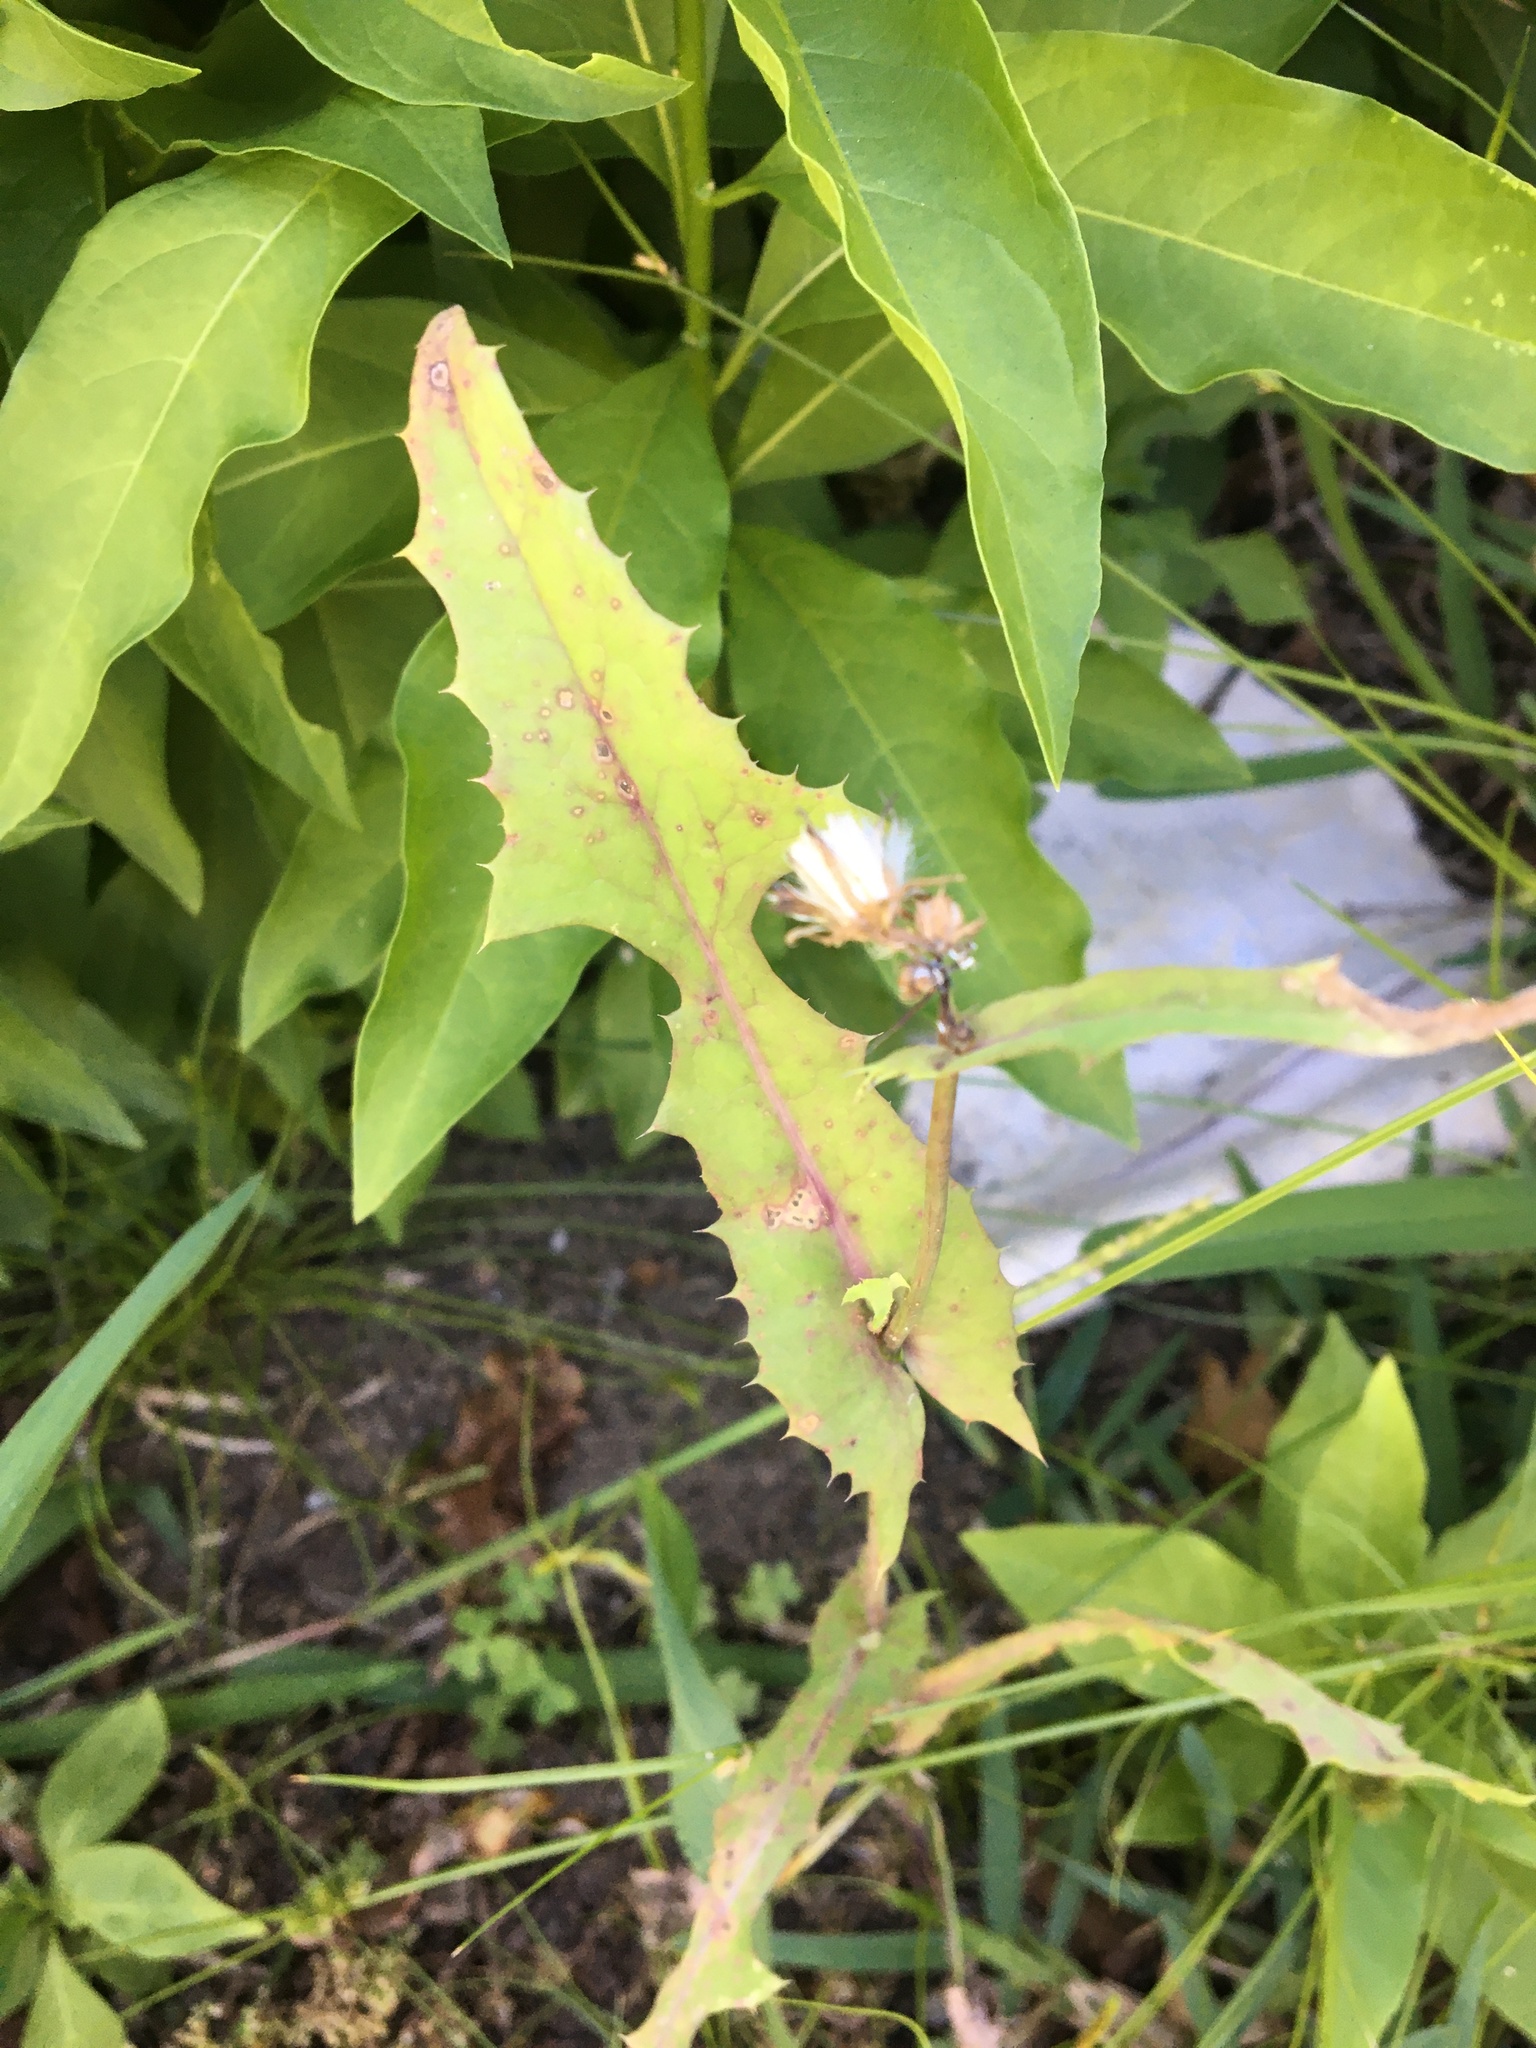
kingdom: Plantae
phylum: Tracheophyta
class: Magnoliopsida
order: Asterales
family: Asteraceae
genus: Sonchus
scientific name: Sonchus oleraceus
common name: Common sowthistle
